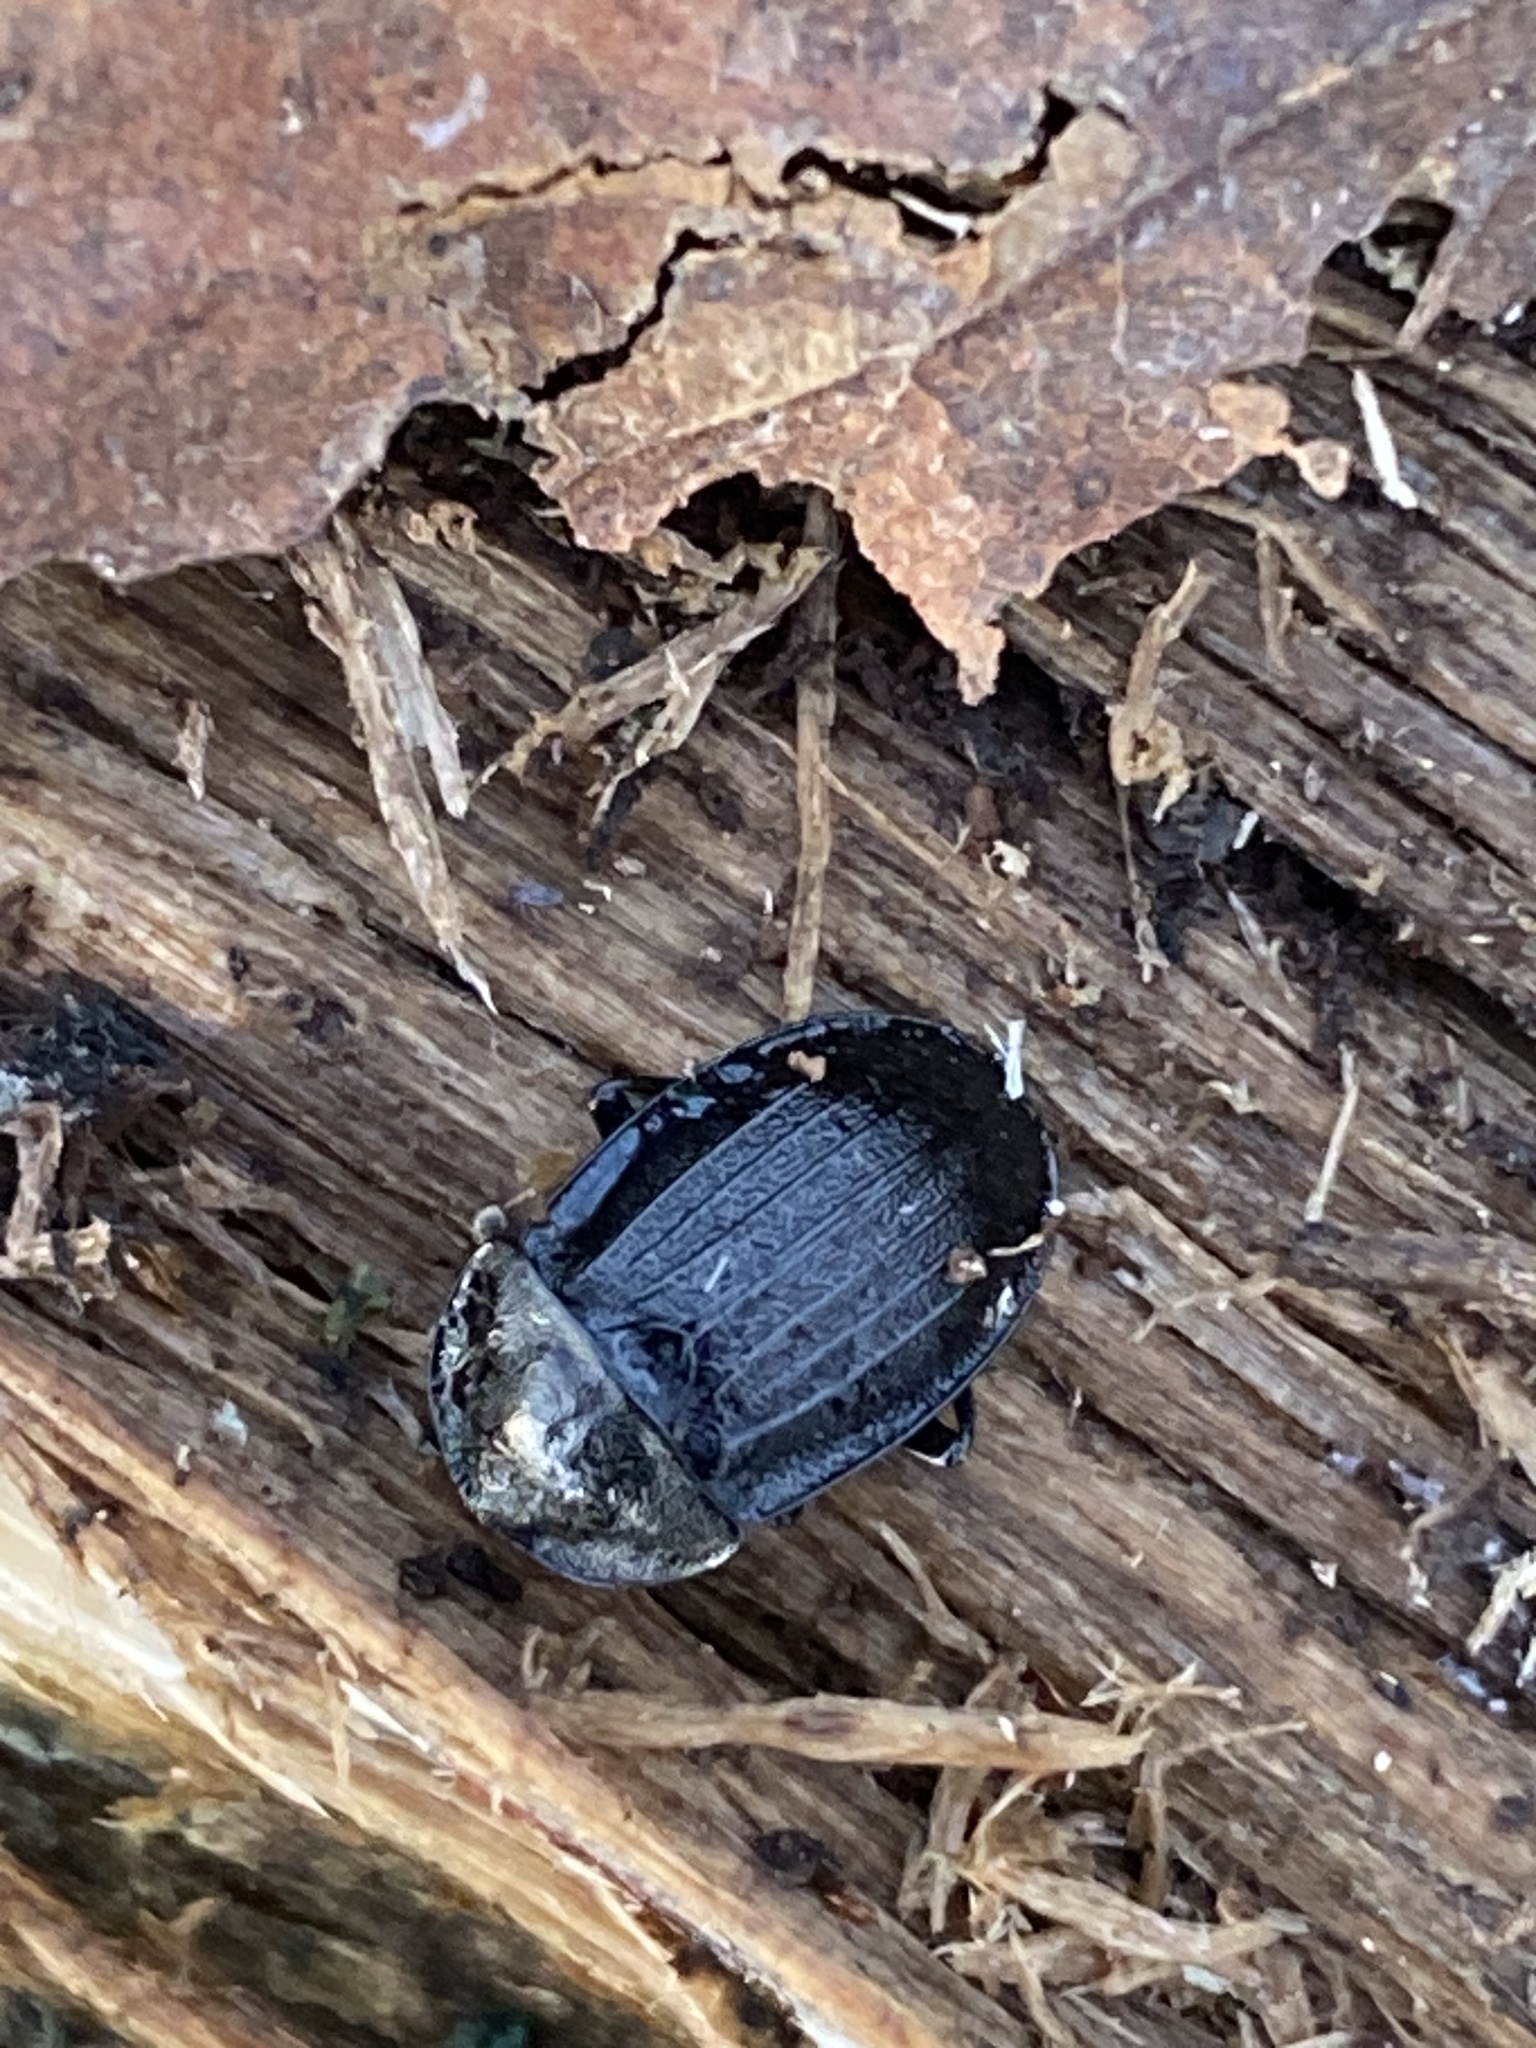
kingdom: Animalia
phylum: Arthropoda
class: Insecta
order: Coleoptera
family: Staphylinidae
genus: Silpha
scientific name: Silpha atrata
